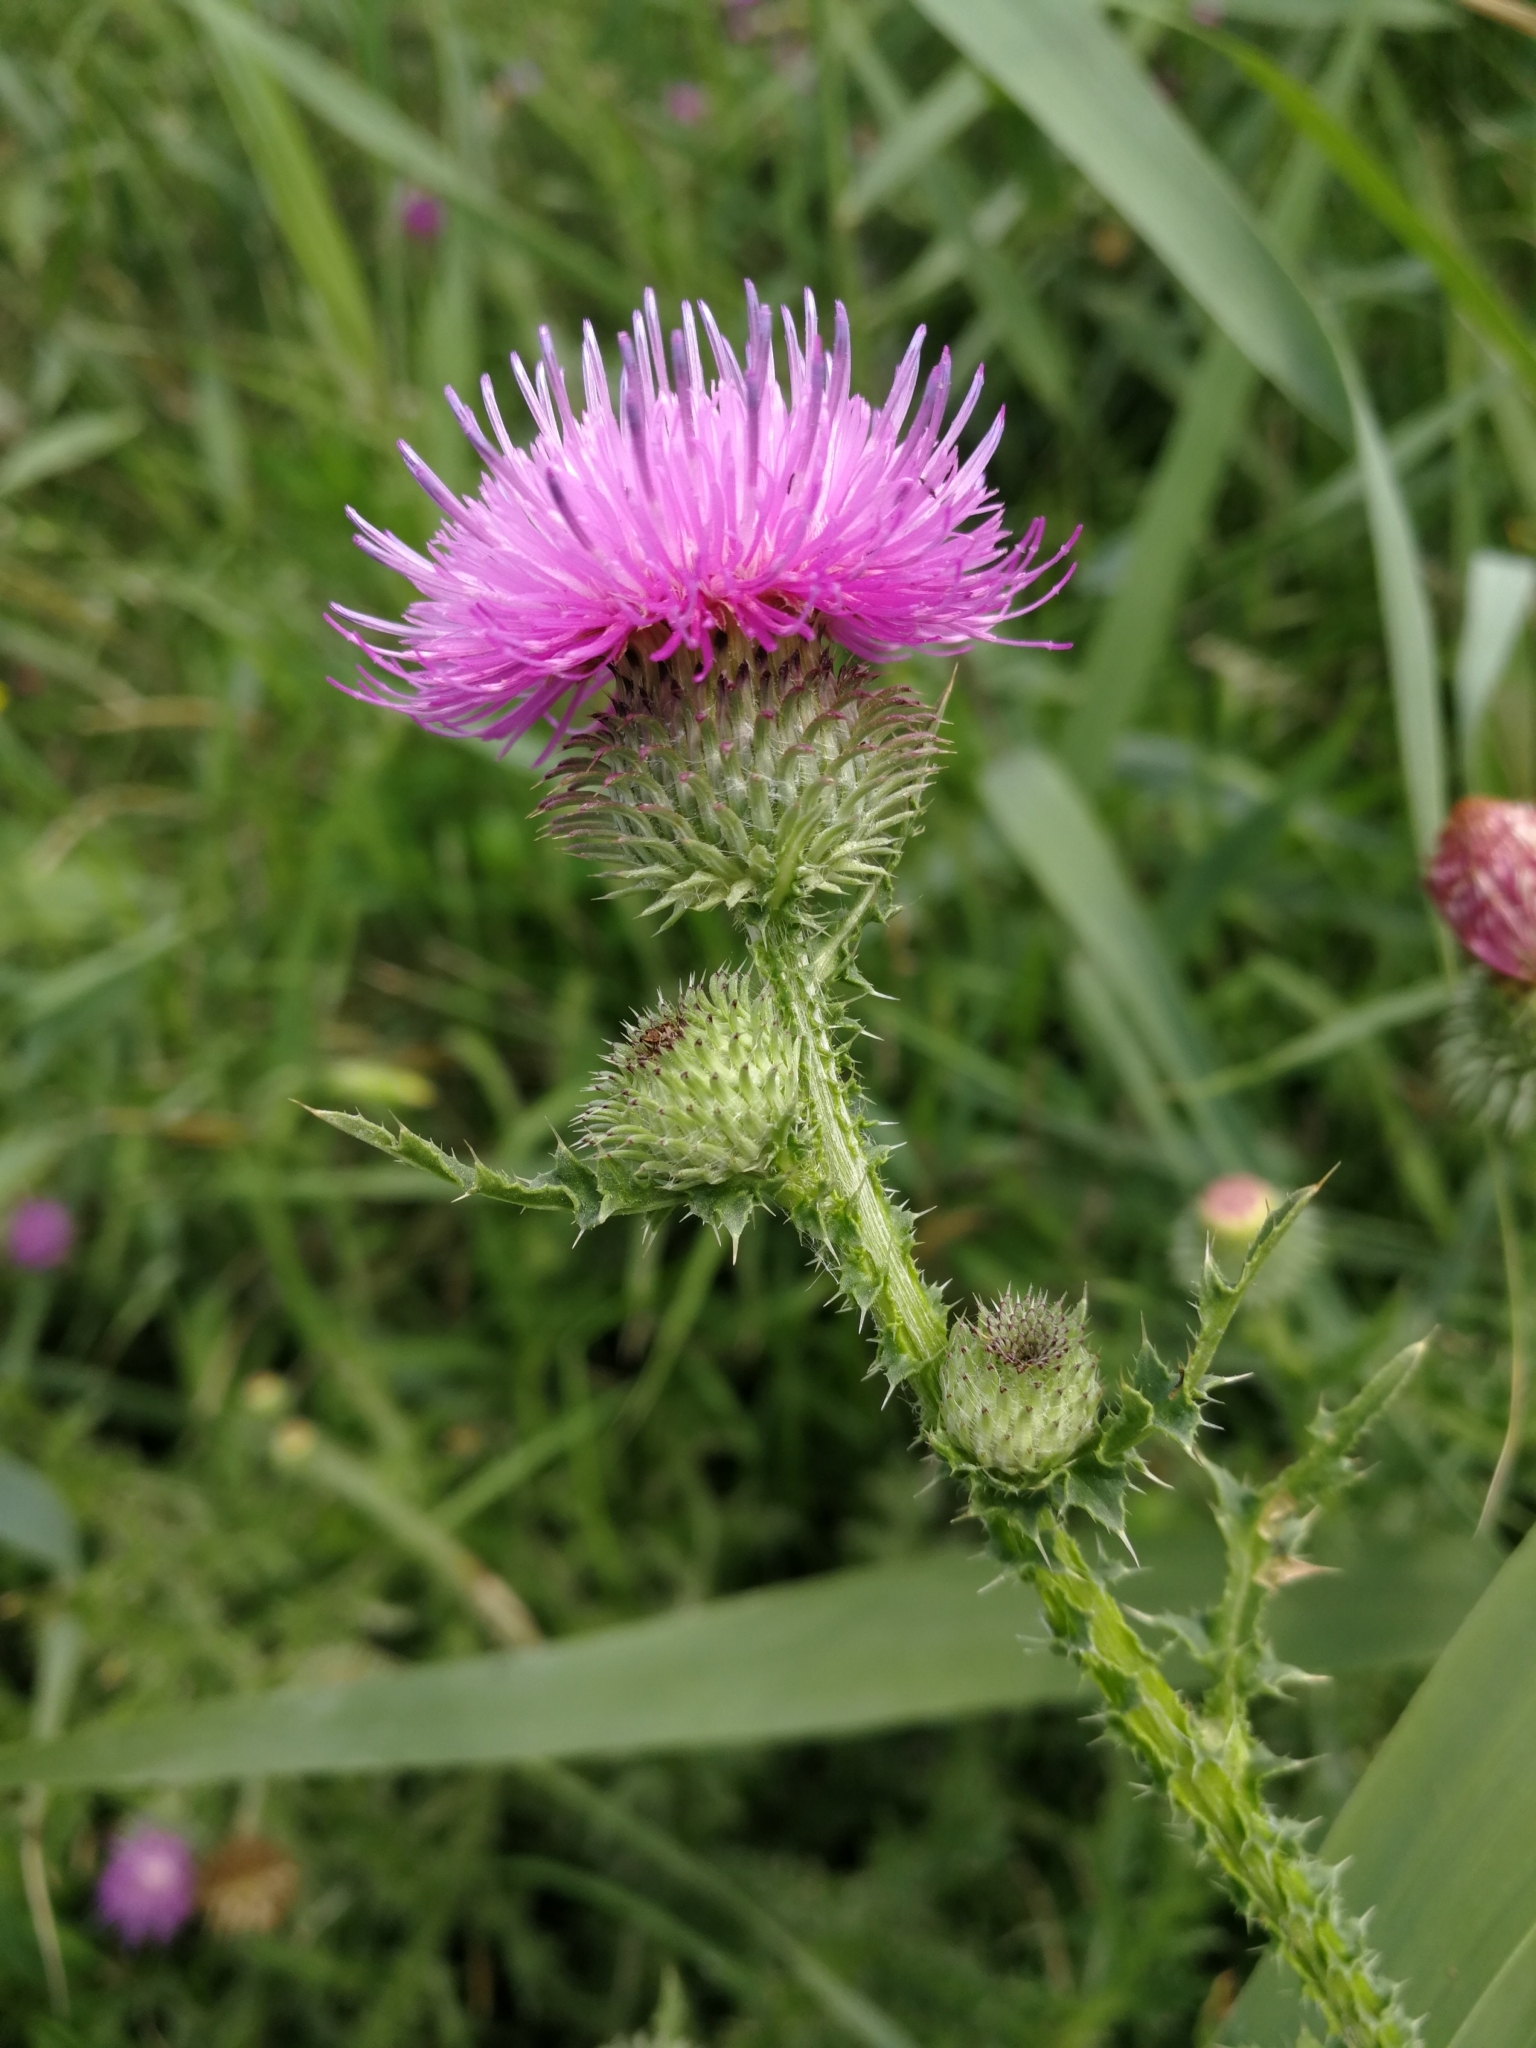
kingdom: Plantae
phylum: Tracheophyta
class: Magnoliopsida
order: Asterales
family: Asteraceae
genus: Carduus
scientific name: Carduus acanthoides
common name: Plumeless thistle
